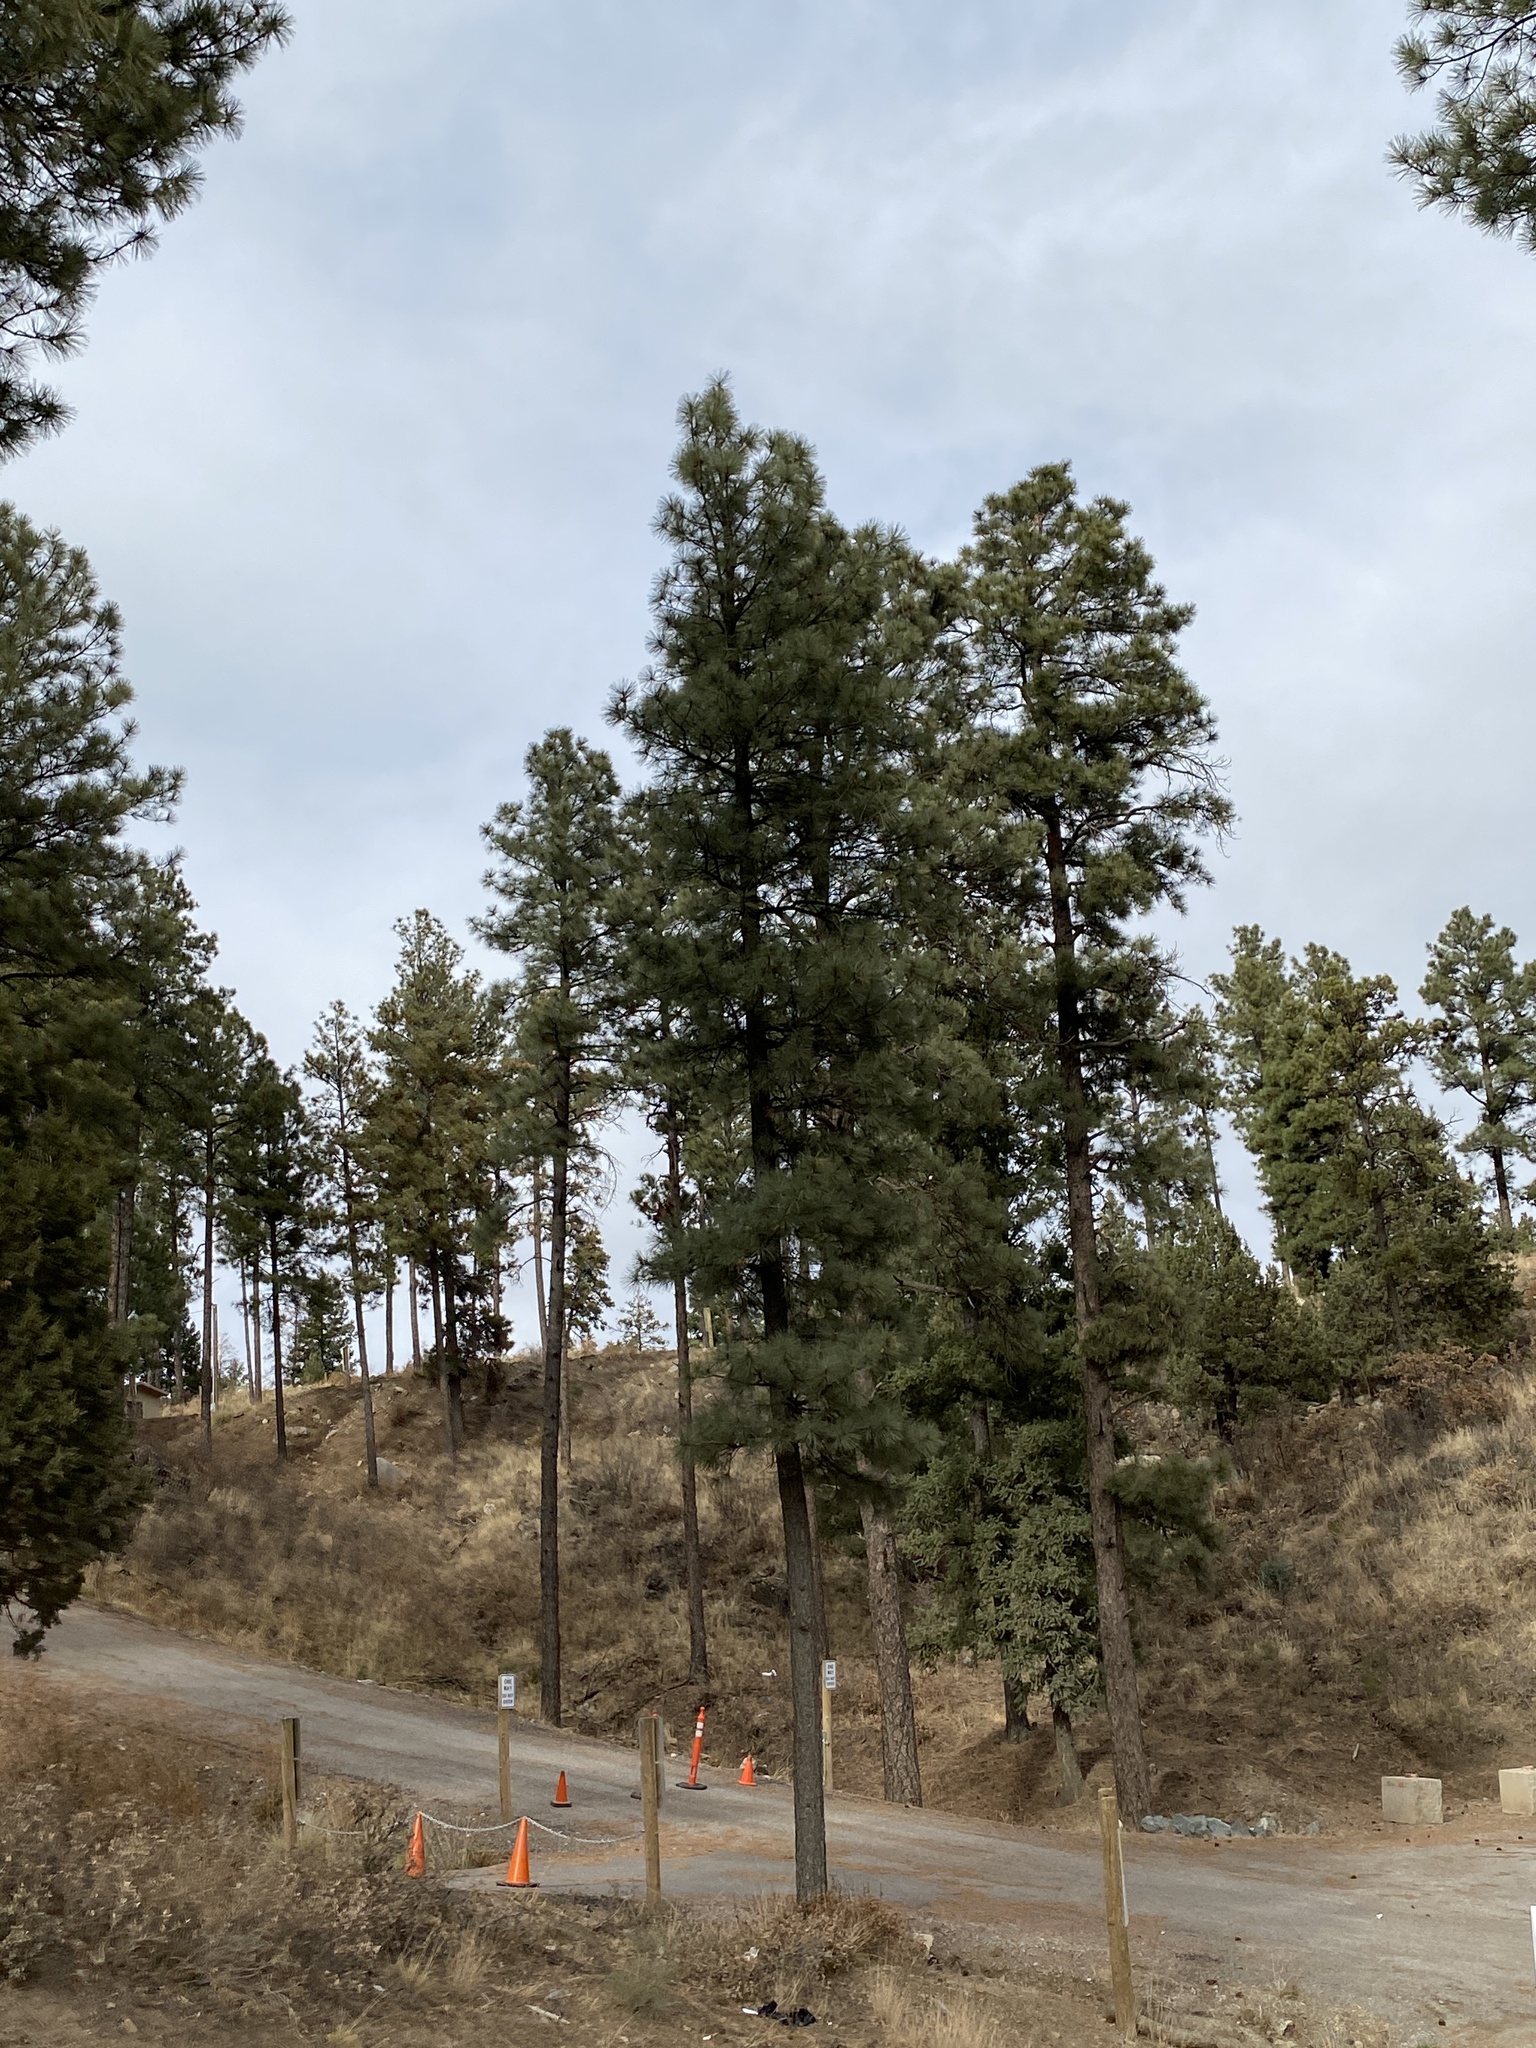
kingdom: Plantae
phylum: Tracheophyta
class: Pinopsida
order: Pinales
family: Pinaceae
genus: Pinus
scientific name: Pinus ponderosa
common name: Western yellow-pine
